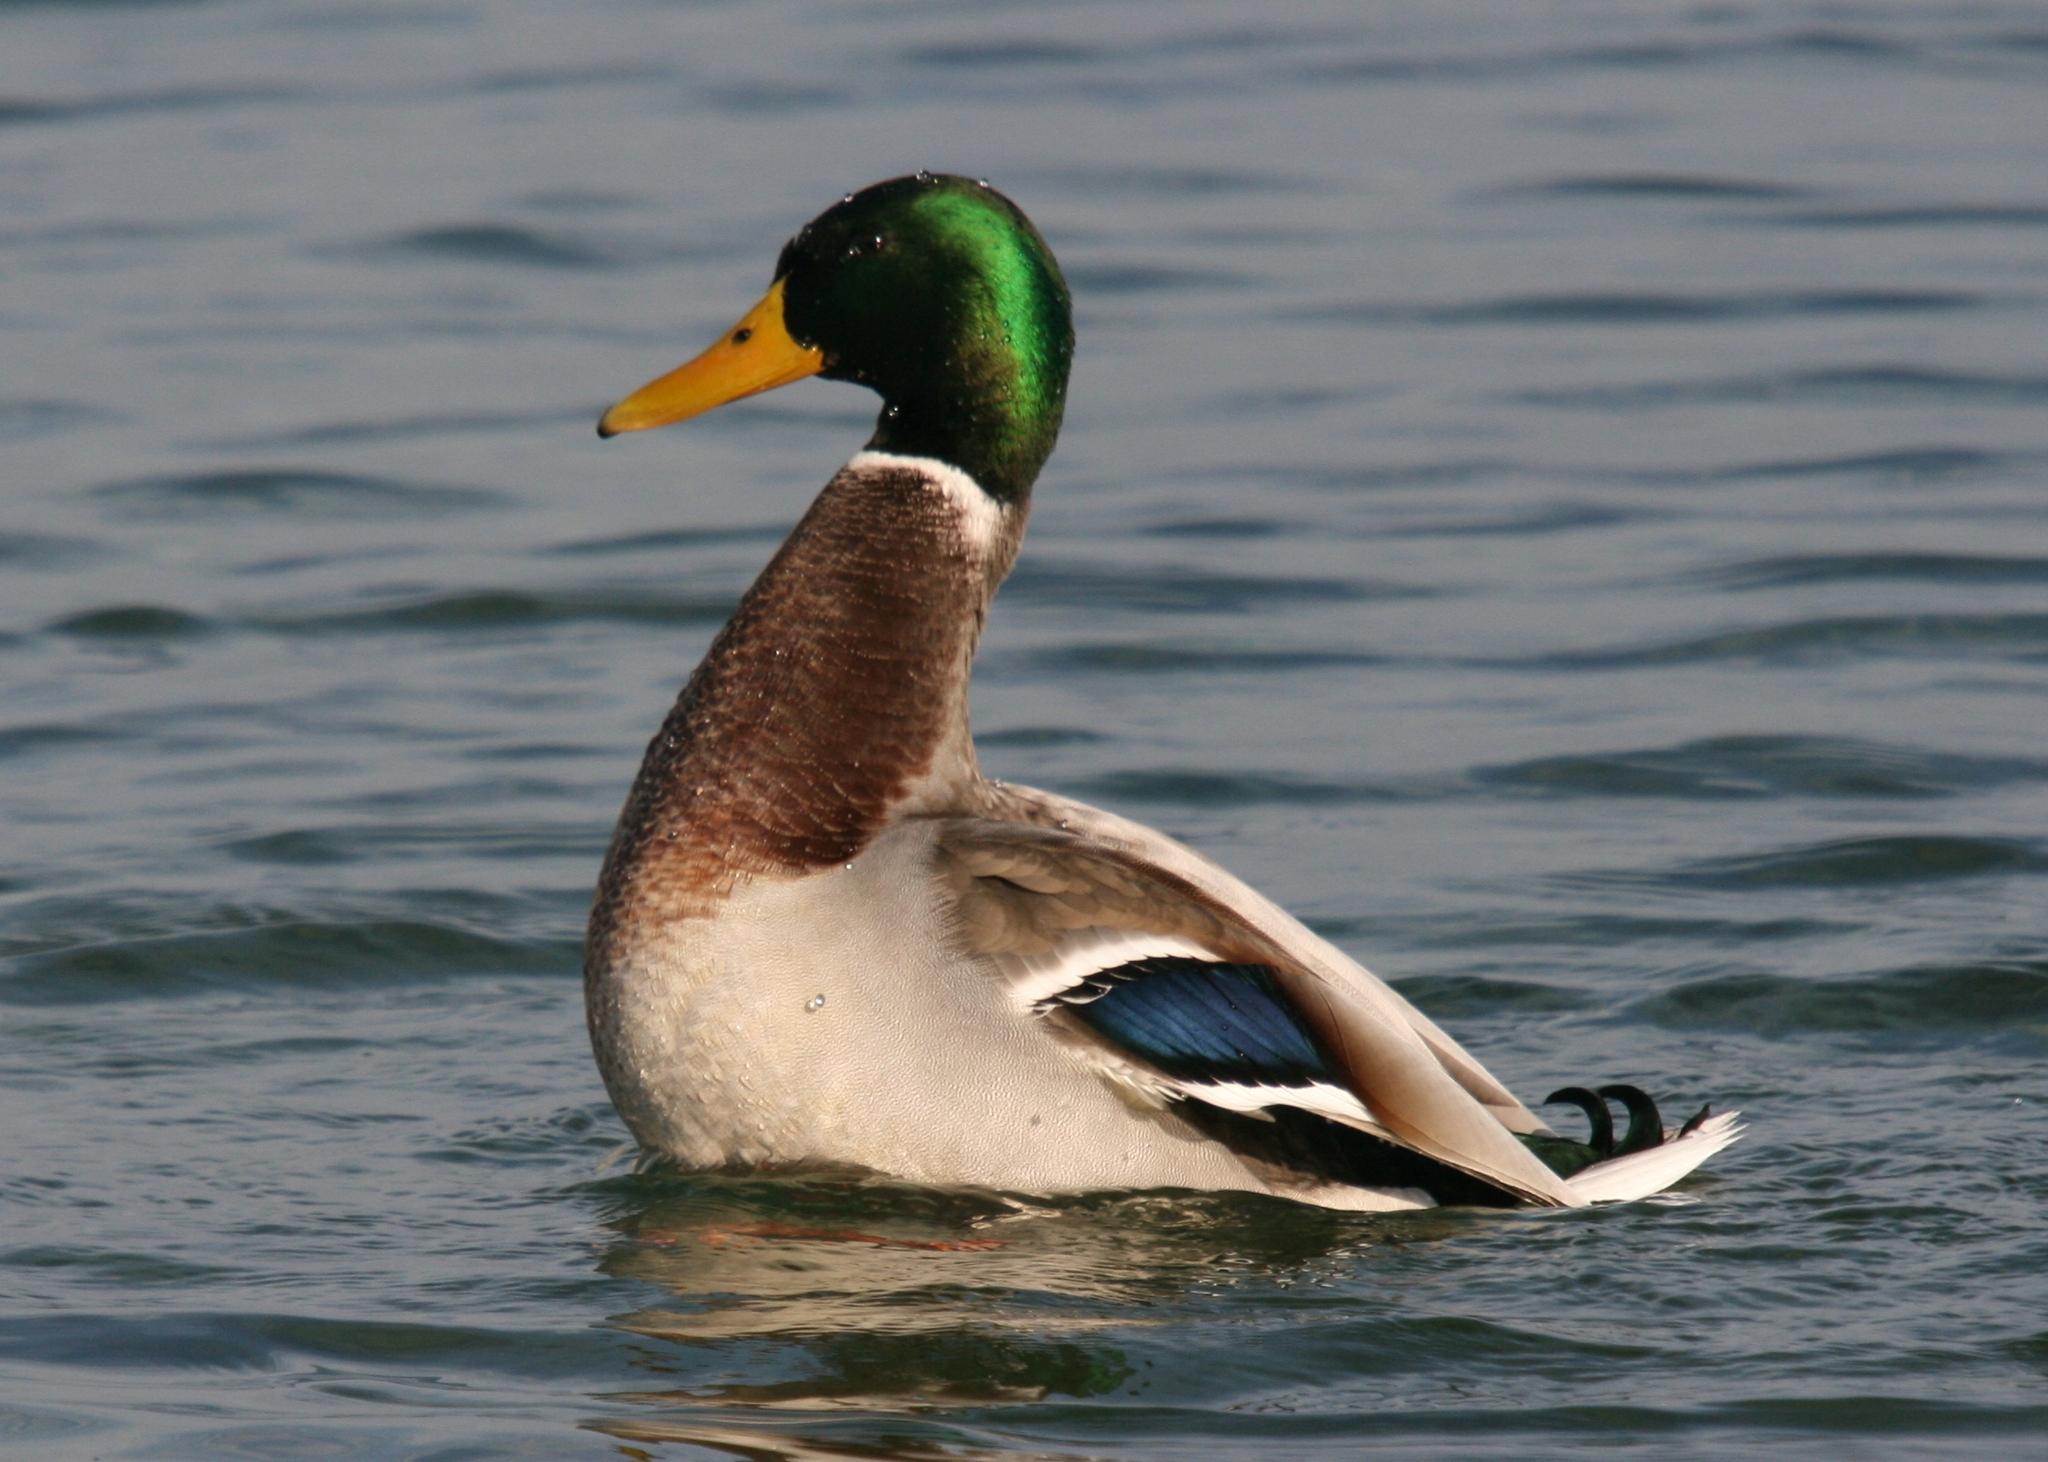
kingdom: Animalia
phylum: Chordata
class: Aves
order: Anseriformes
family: Anatidae
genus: Anas
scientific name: Anas platyrhynchos
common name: Mallard
